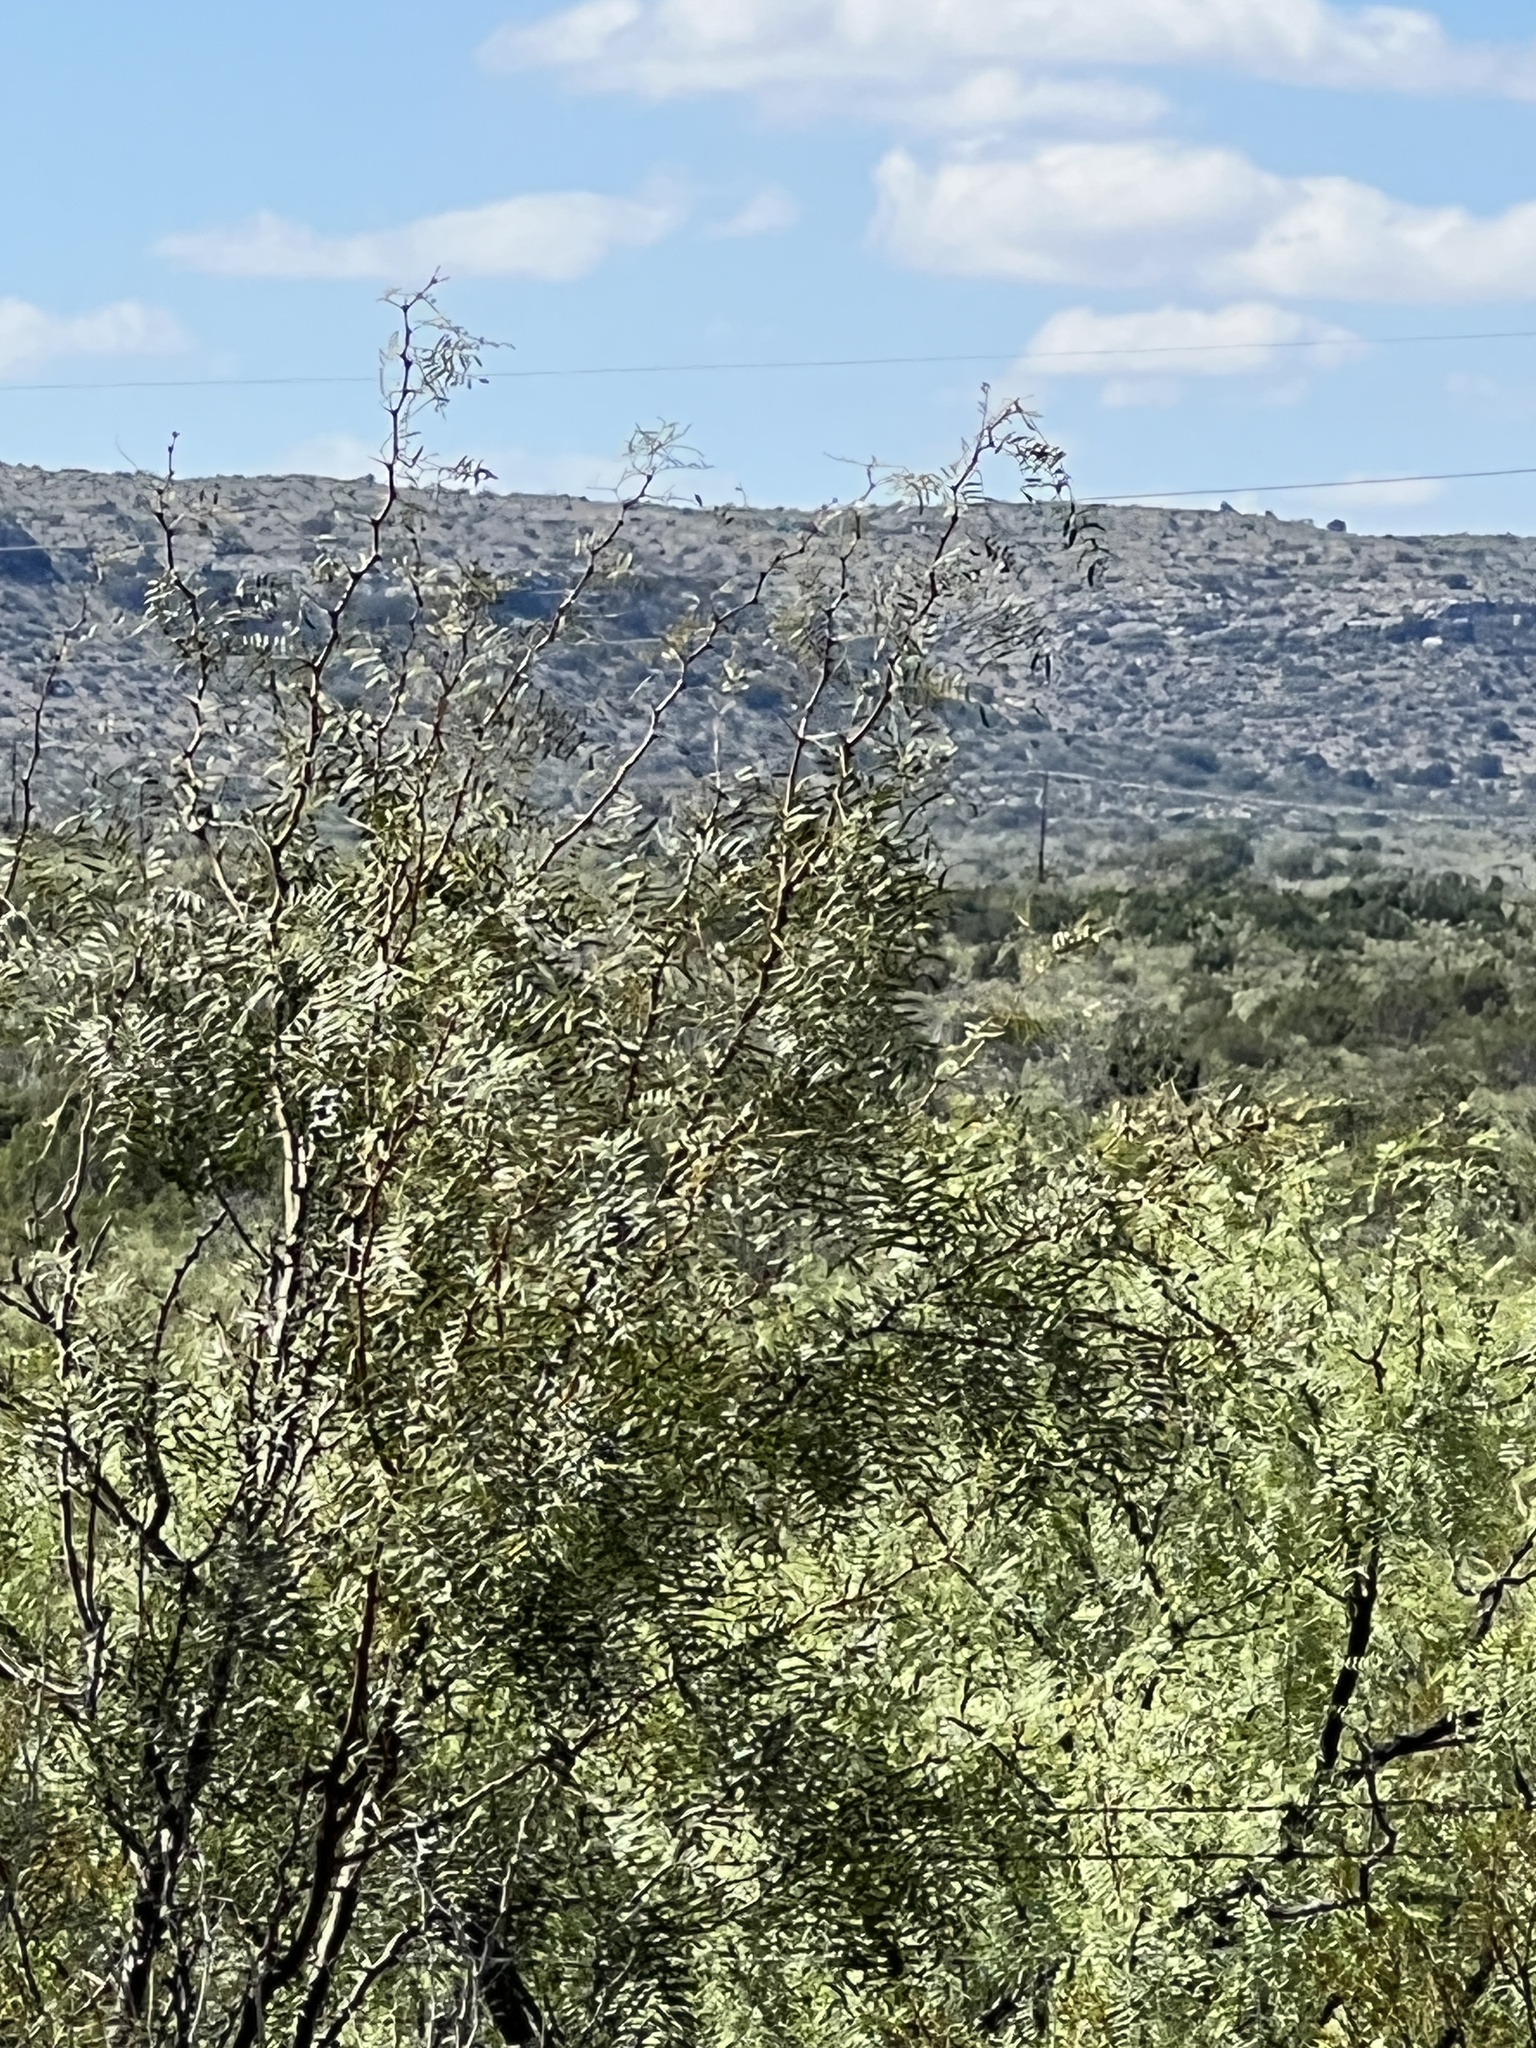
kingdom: Plantae
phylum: Tracheophyta
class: Magnoliopsida
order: Fabales
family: Fabaceae
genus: Prosopis
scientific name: Prosopis glandulosa
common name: Honey mesquite
